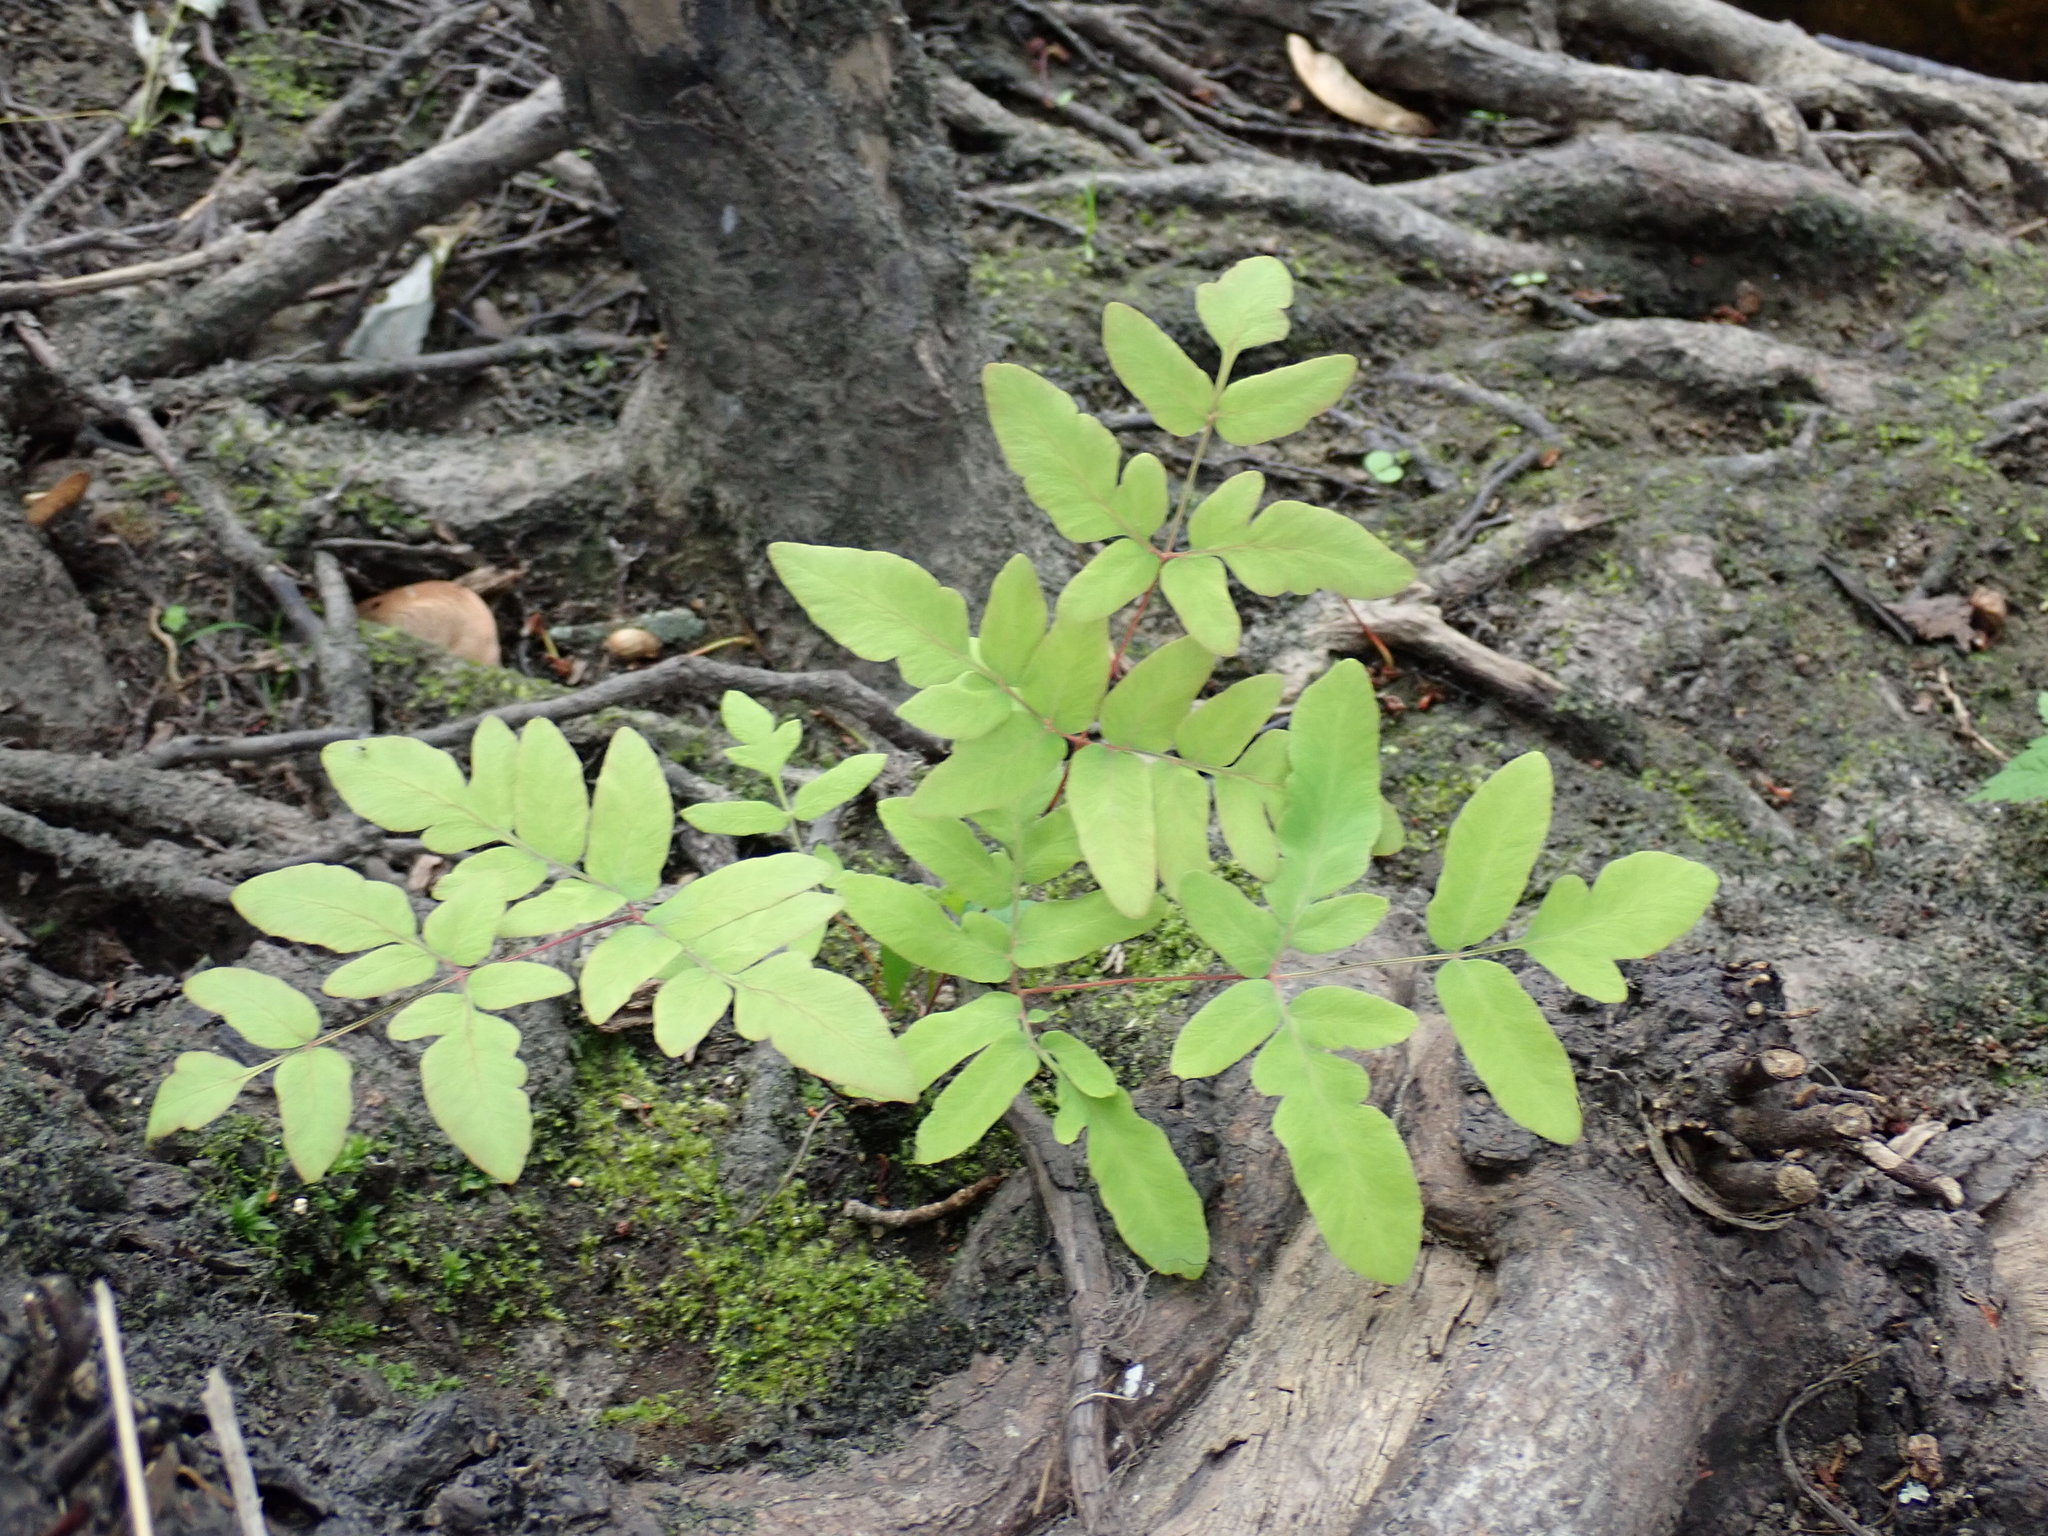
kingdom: Plantae
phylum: Tracheophyta
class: Polypodiopsida
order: Osmundales
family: Osmundaceae
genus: Osmunda
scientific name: Osmunda spectabilis
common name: American royal fern
